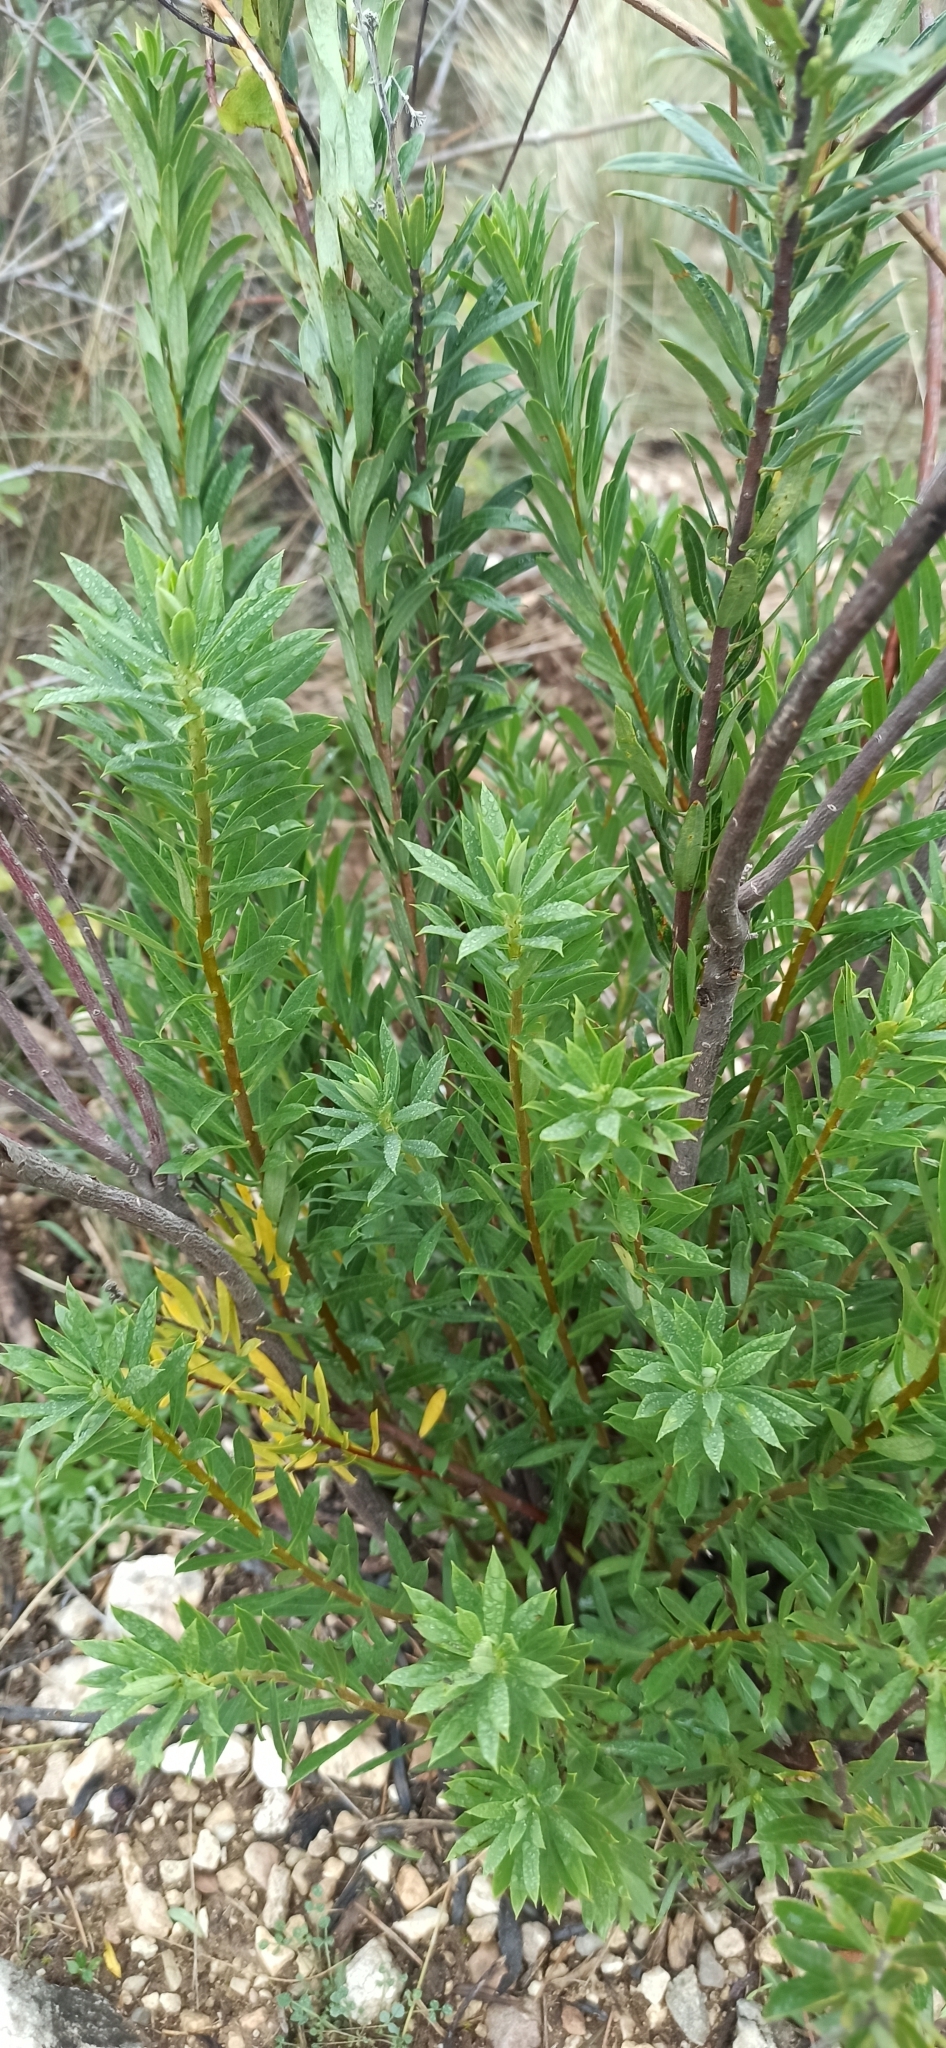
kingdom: Plantae
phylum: Tracheophyta
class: Magnoliopsida
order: Malvales
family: Thymelaeaceae
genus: Daphne
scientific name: Daphne gnidium
